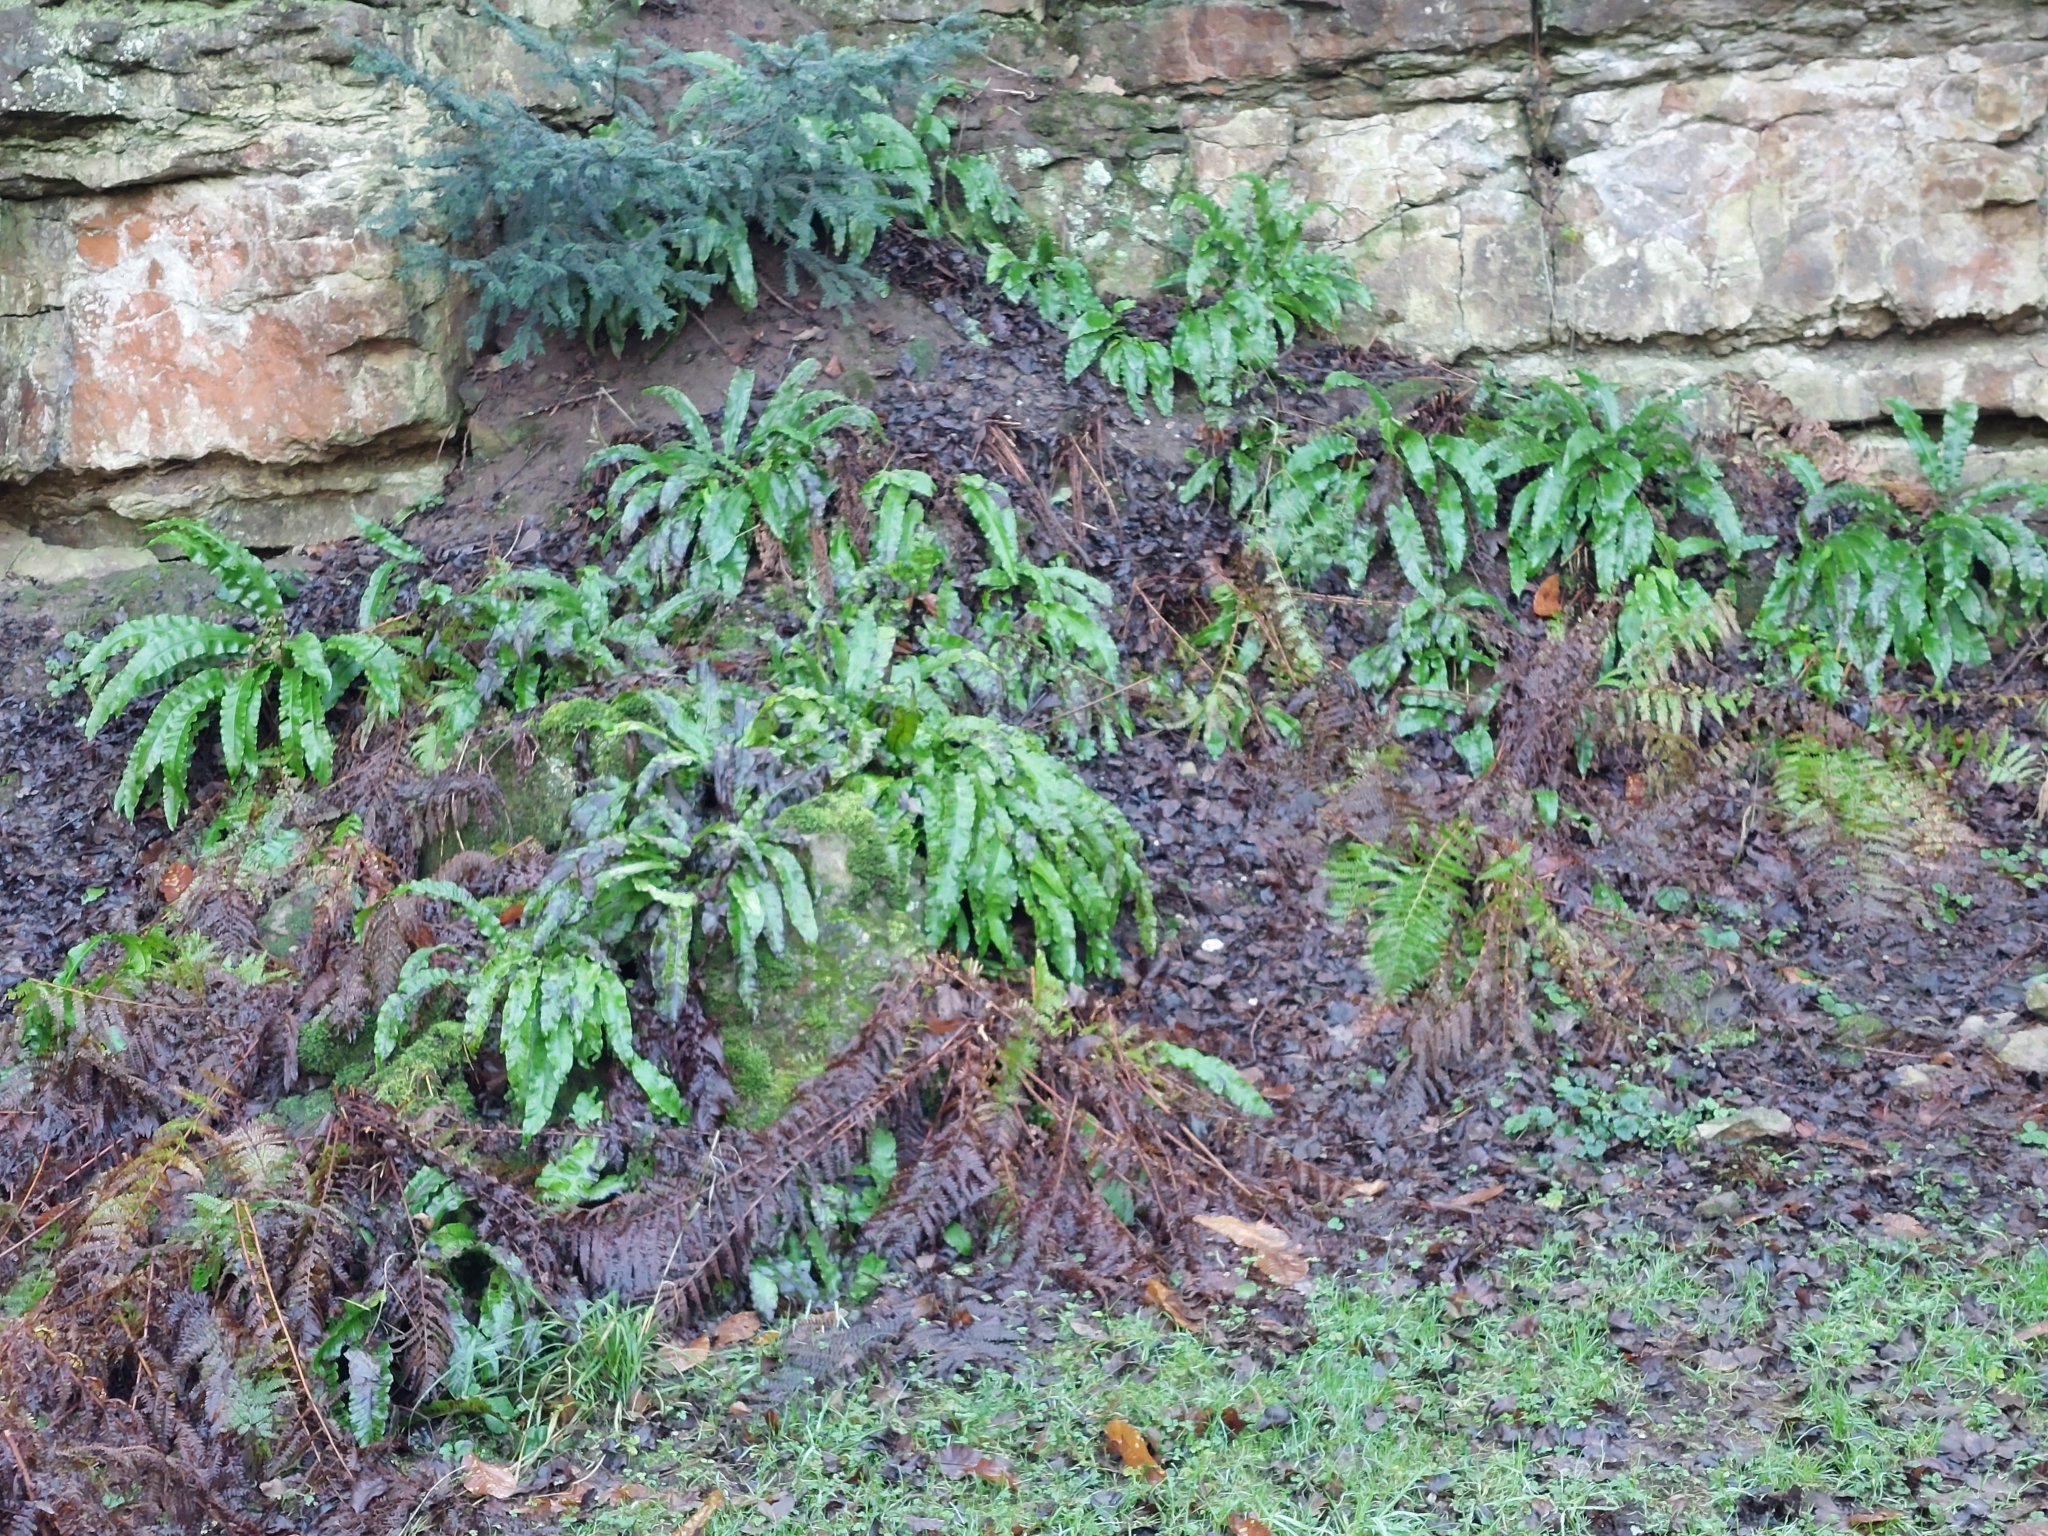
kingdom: Plantae
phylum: Tracheophyta
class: Polypodiopsida
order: Polypodiales
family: Aspleniaceae
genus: Asplenium
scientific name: Asplenium scolopendrium
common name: Hart's-tongue fern
